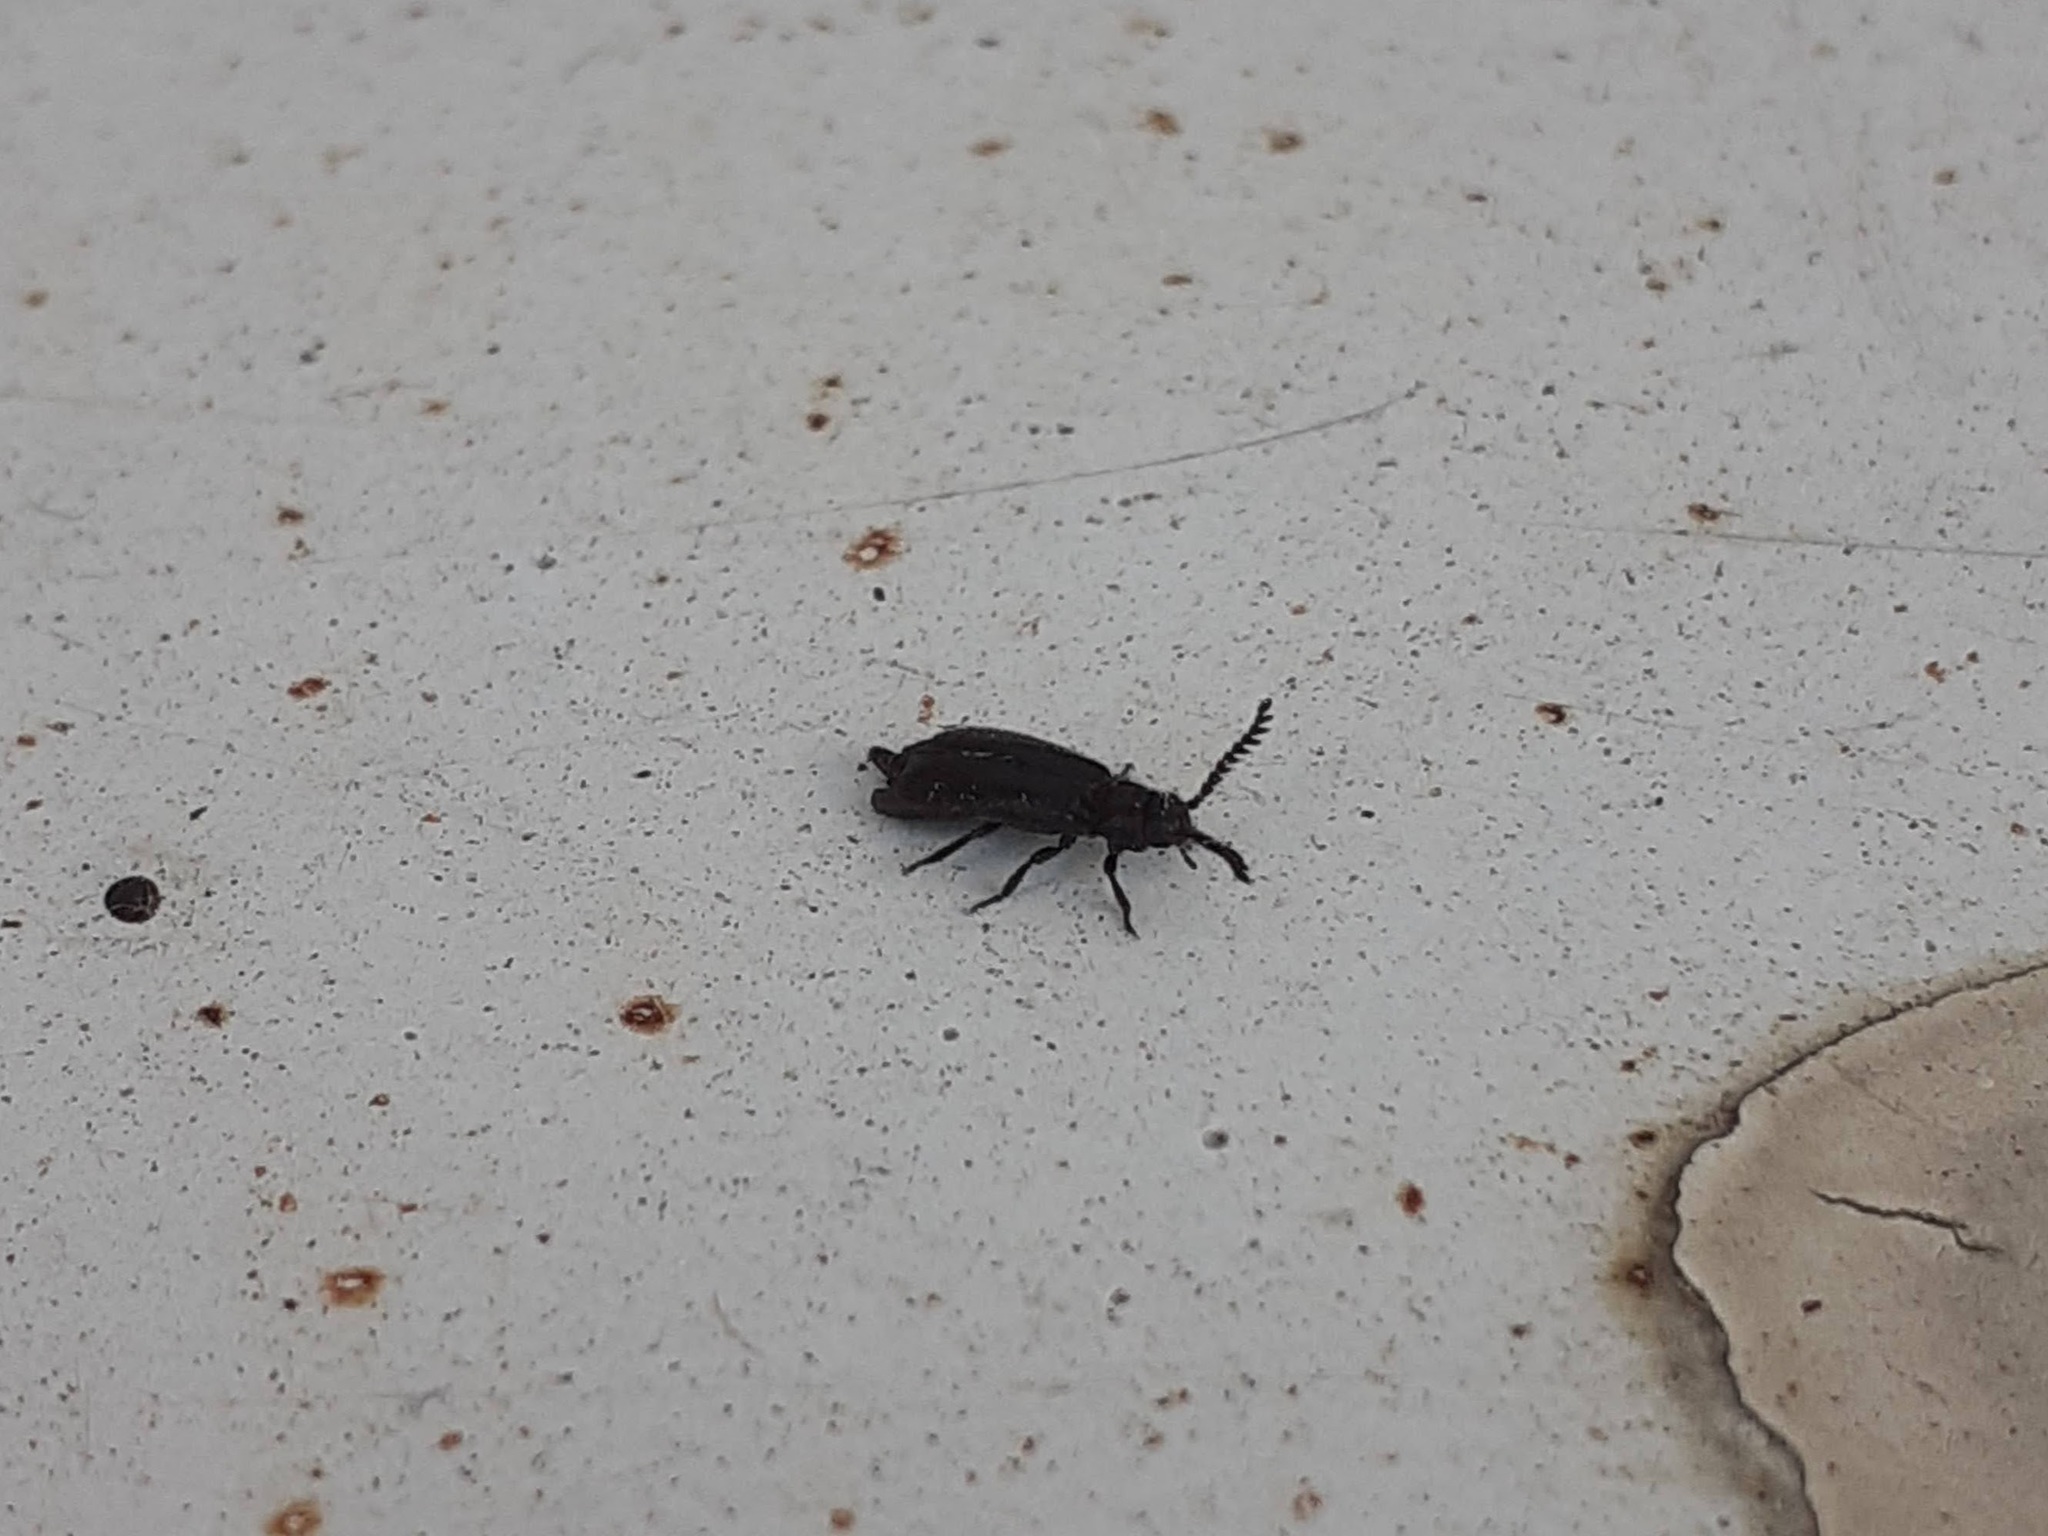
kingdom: Animalia
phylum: Arthropoda
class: Insecta
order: Coleoptera
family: Drilidae
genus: Drilus
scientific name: Drilus concolor
